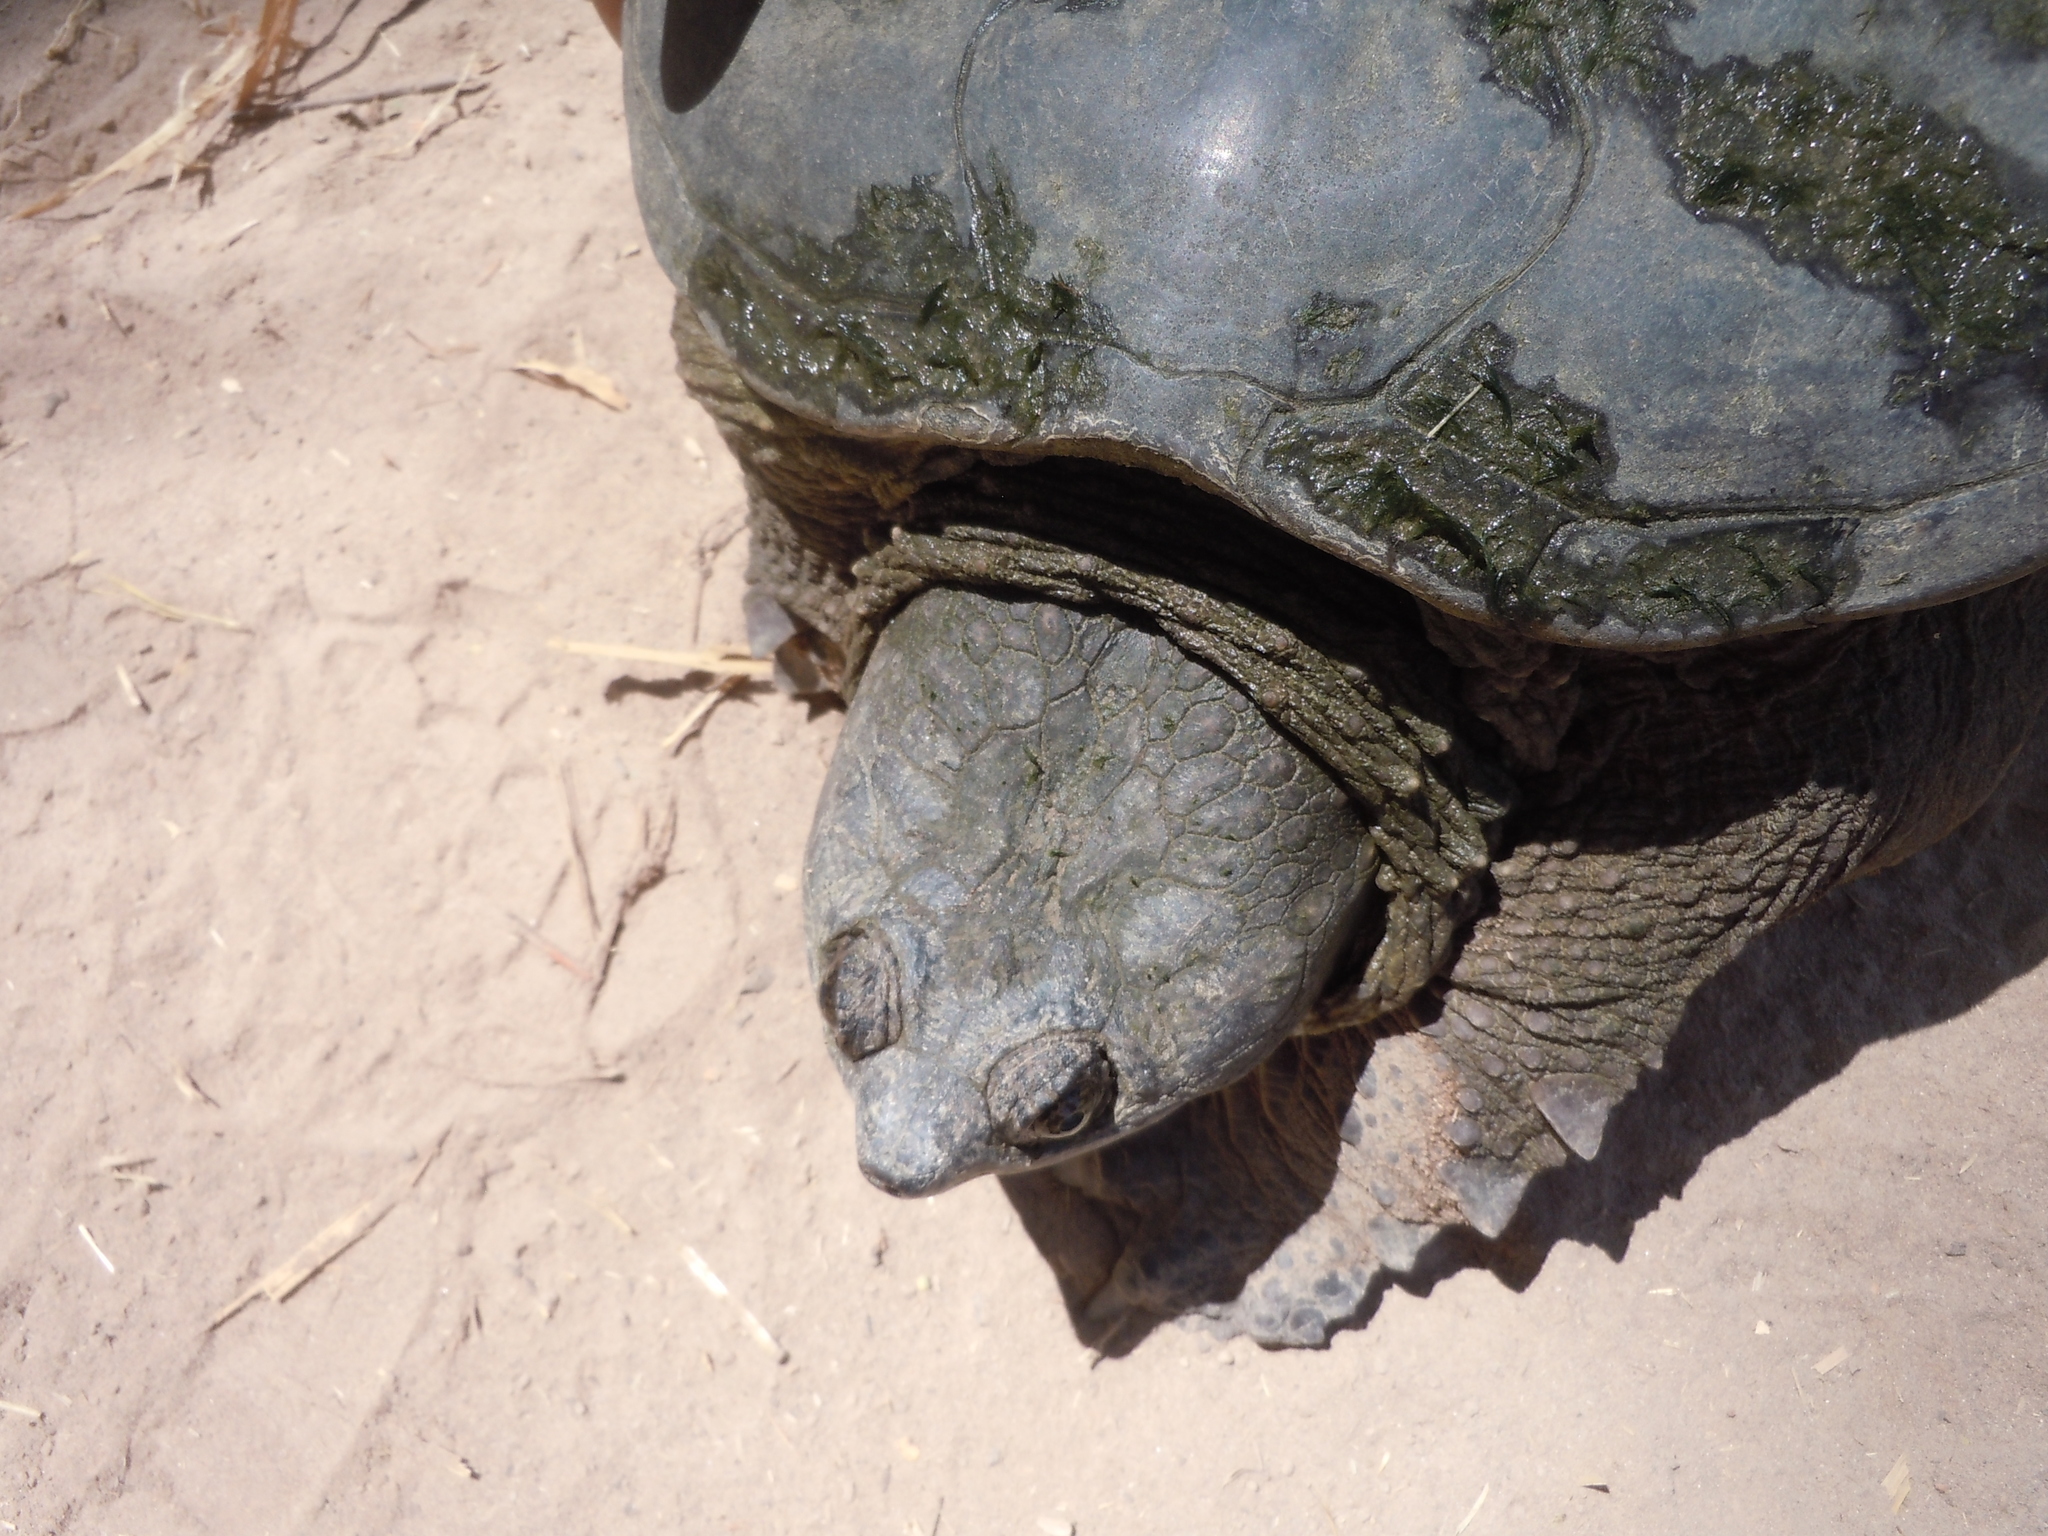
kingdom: Animalia
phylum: Chordata
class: Testudines
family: Chelydridae
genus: Chelydra
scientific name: Chelydra rossignonii
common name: Central american snapping turtle
